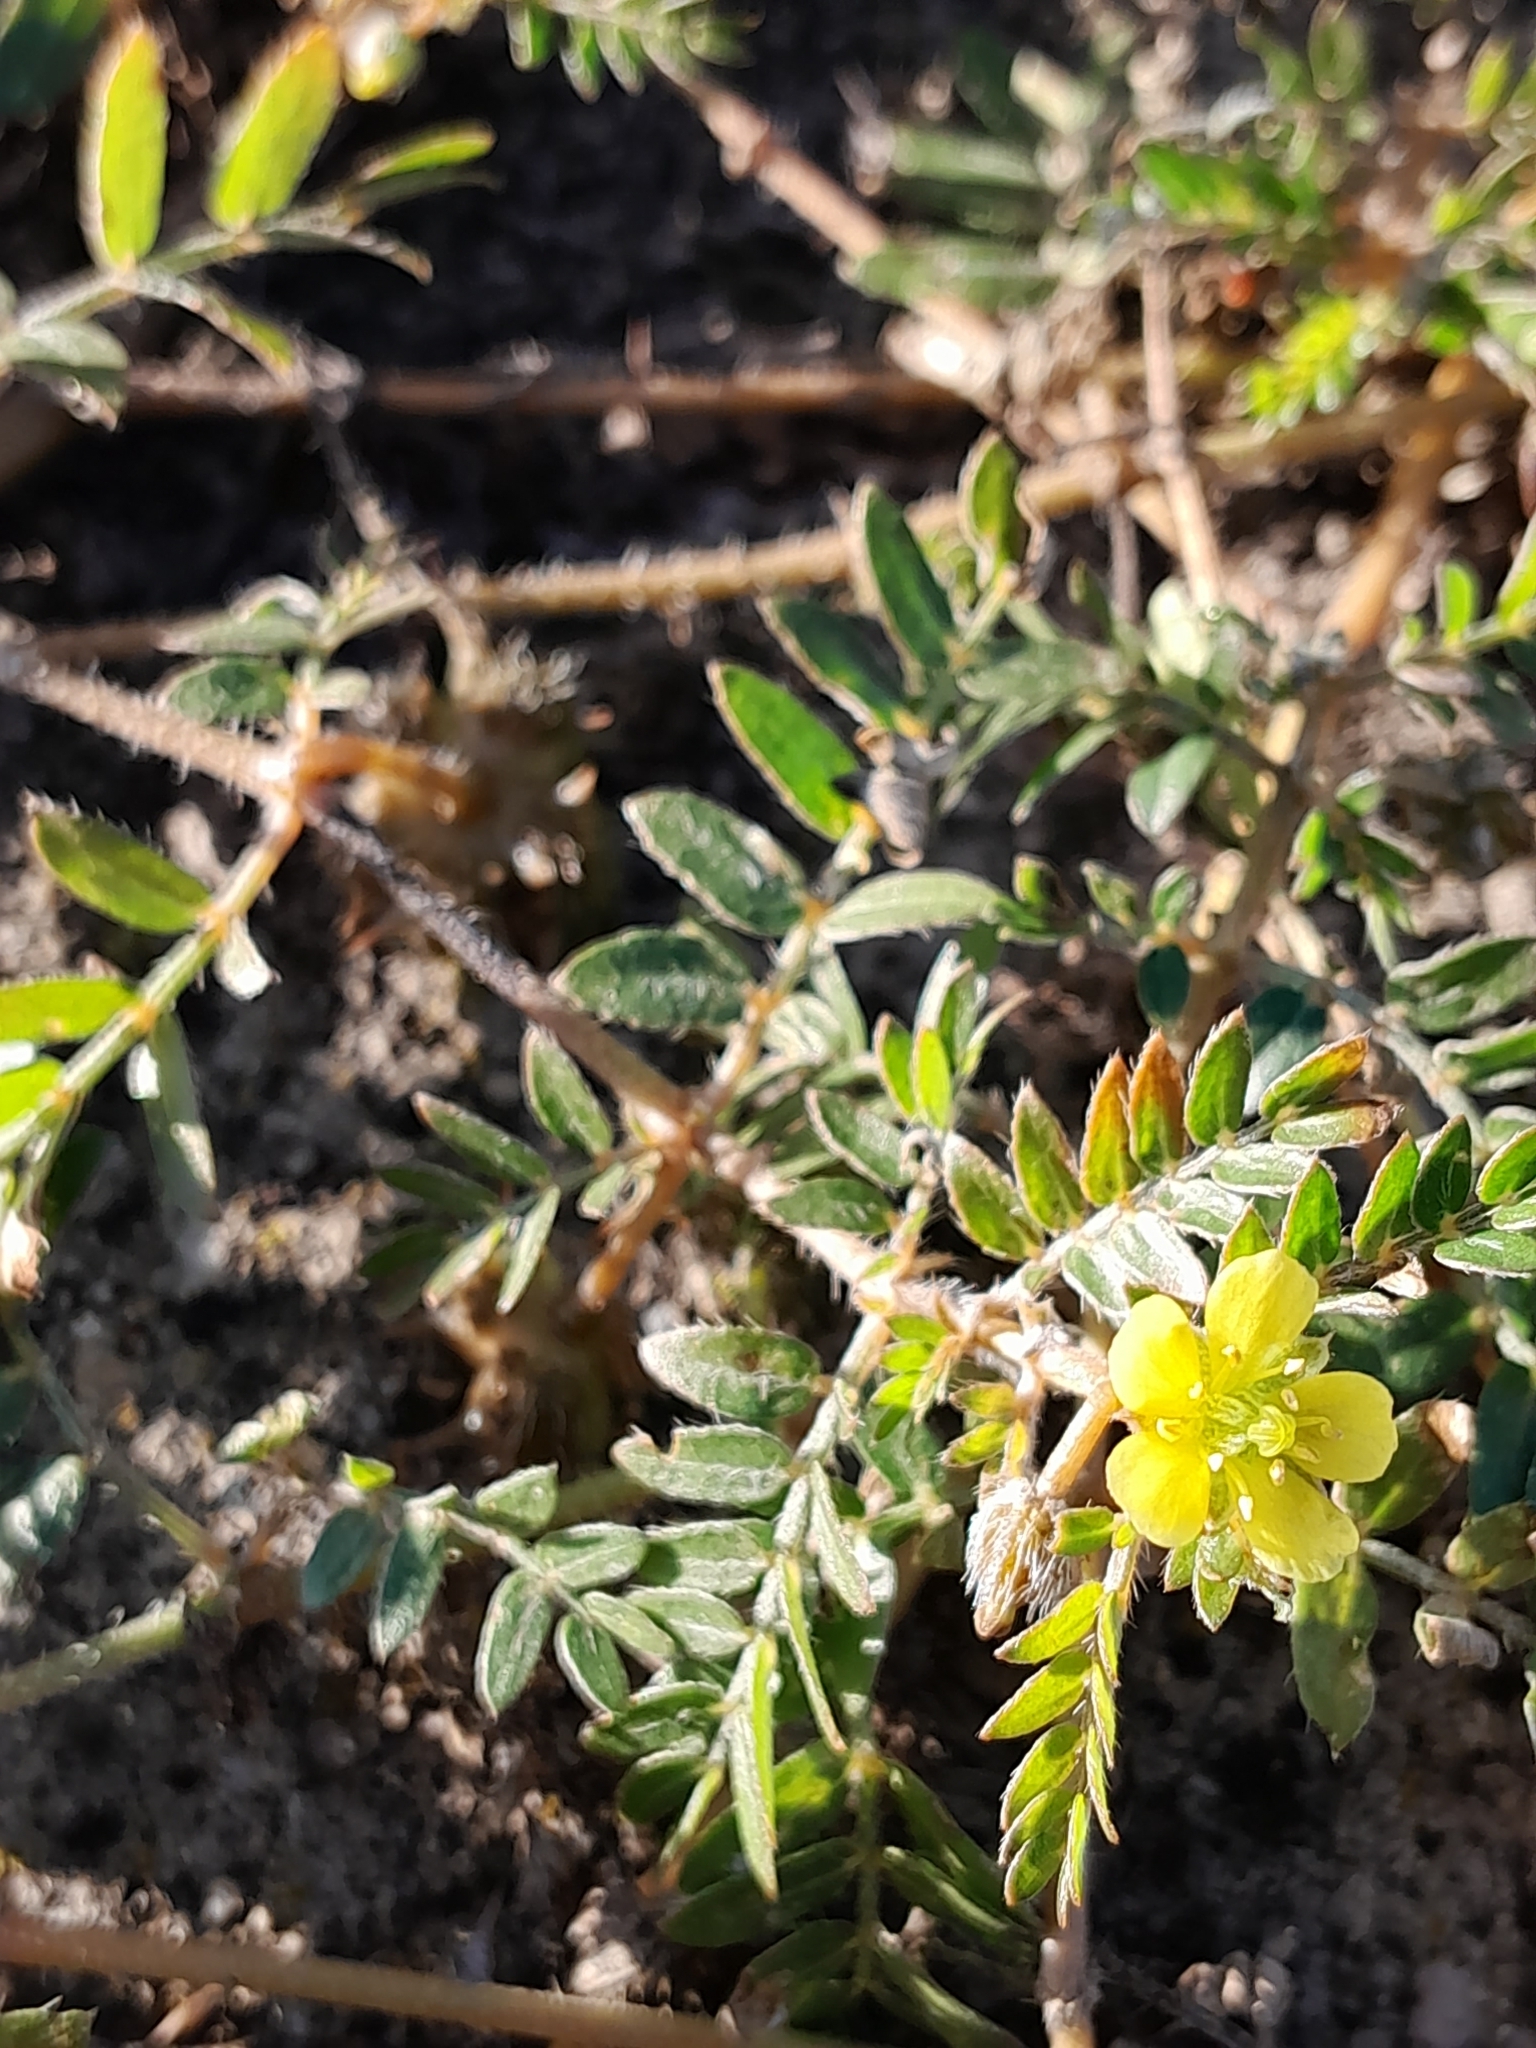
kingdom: Plantae
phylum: Tracheophyta
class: Magnoliopsida
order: Zygophyllales
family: Zygophyllaceae
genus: Tribulus
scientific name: Tribulus terrestris
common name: Puncturevine
